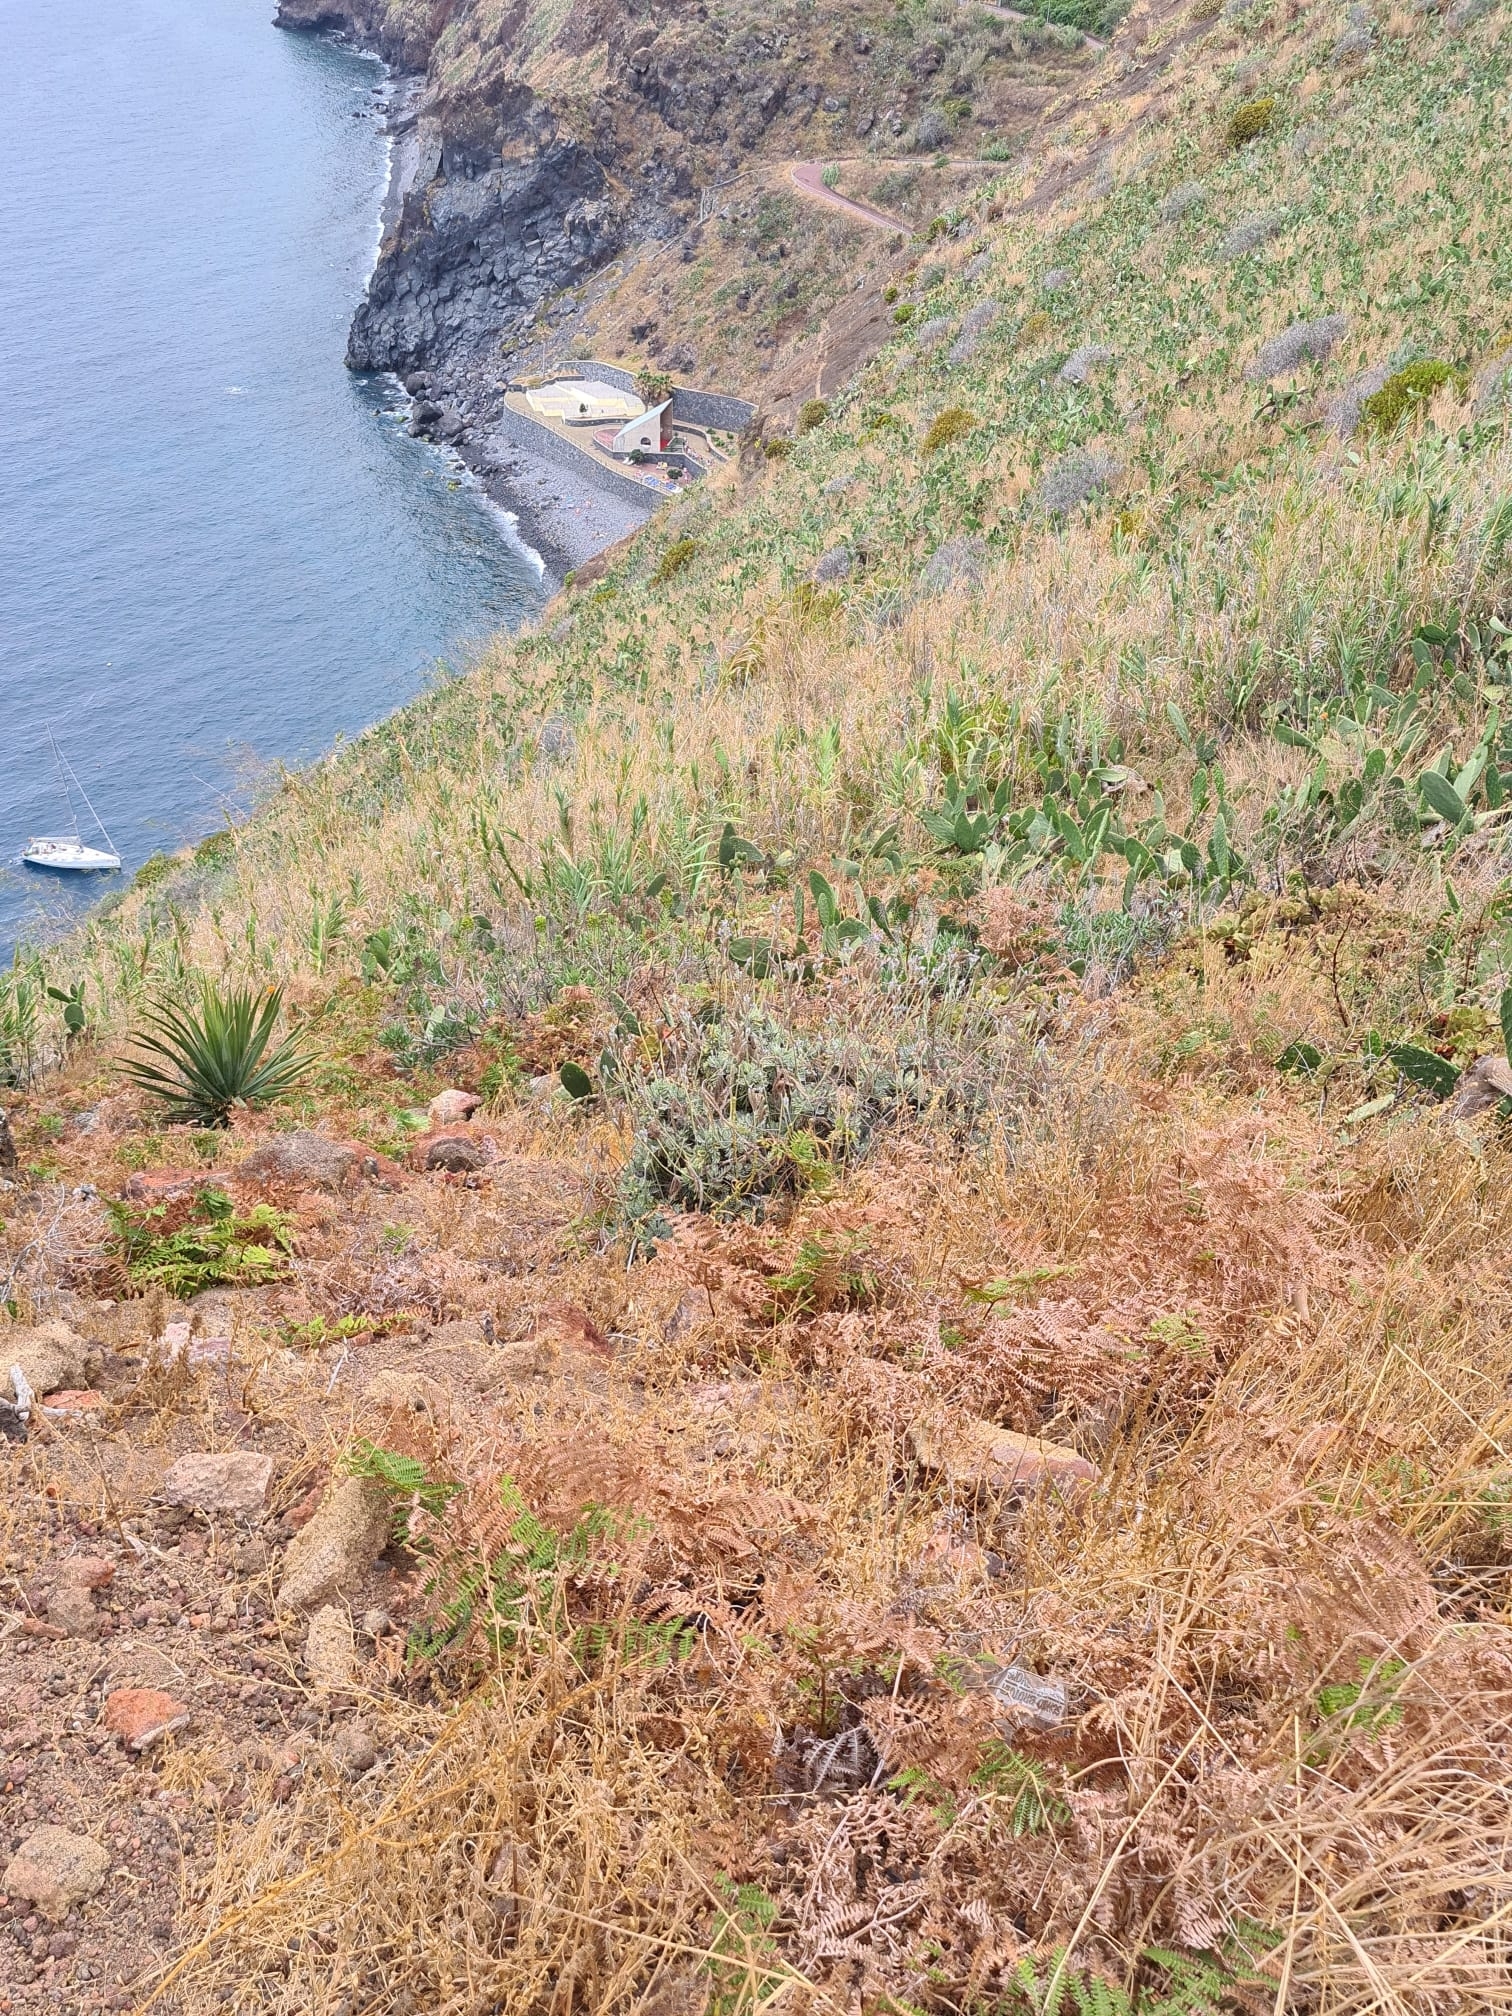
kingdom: Plantae
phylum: Tracheophyta
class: Magnoliopsida
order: Lamiales
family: Lamiaceae
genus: Lavandula
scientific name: Lavandula pinnata
